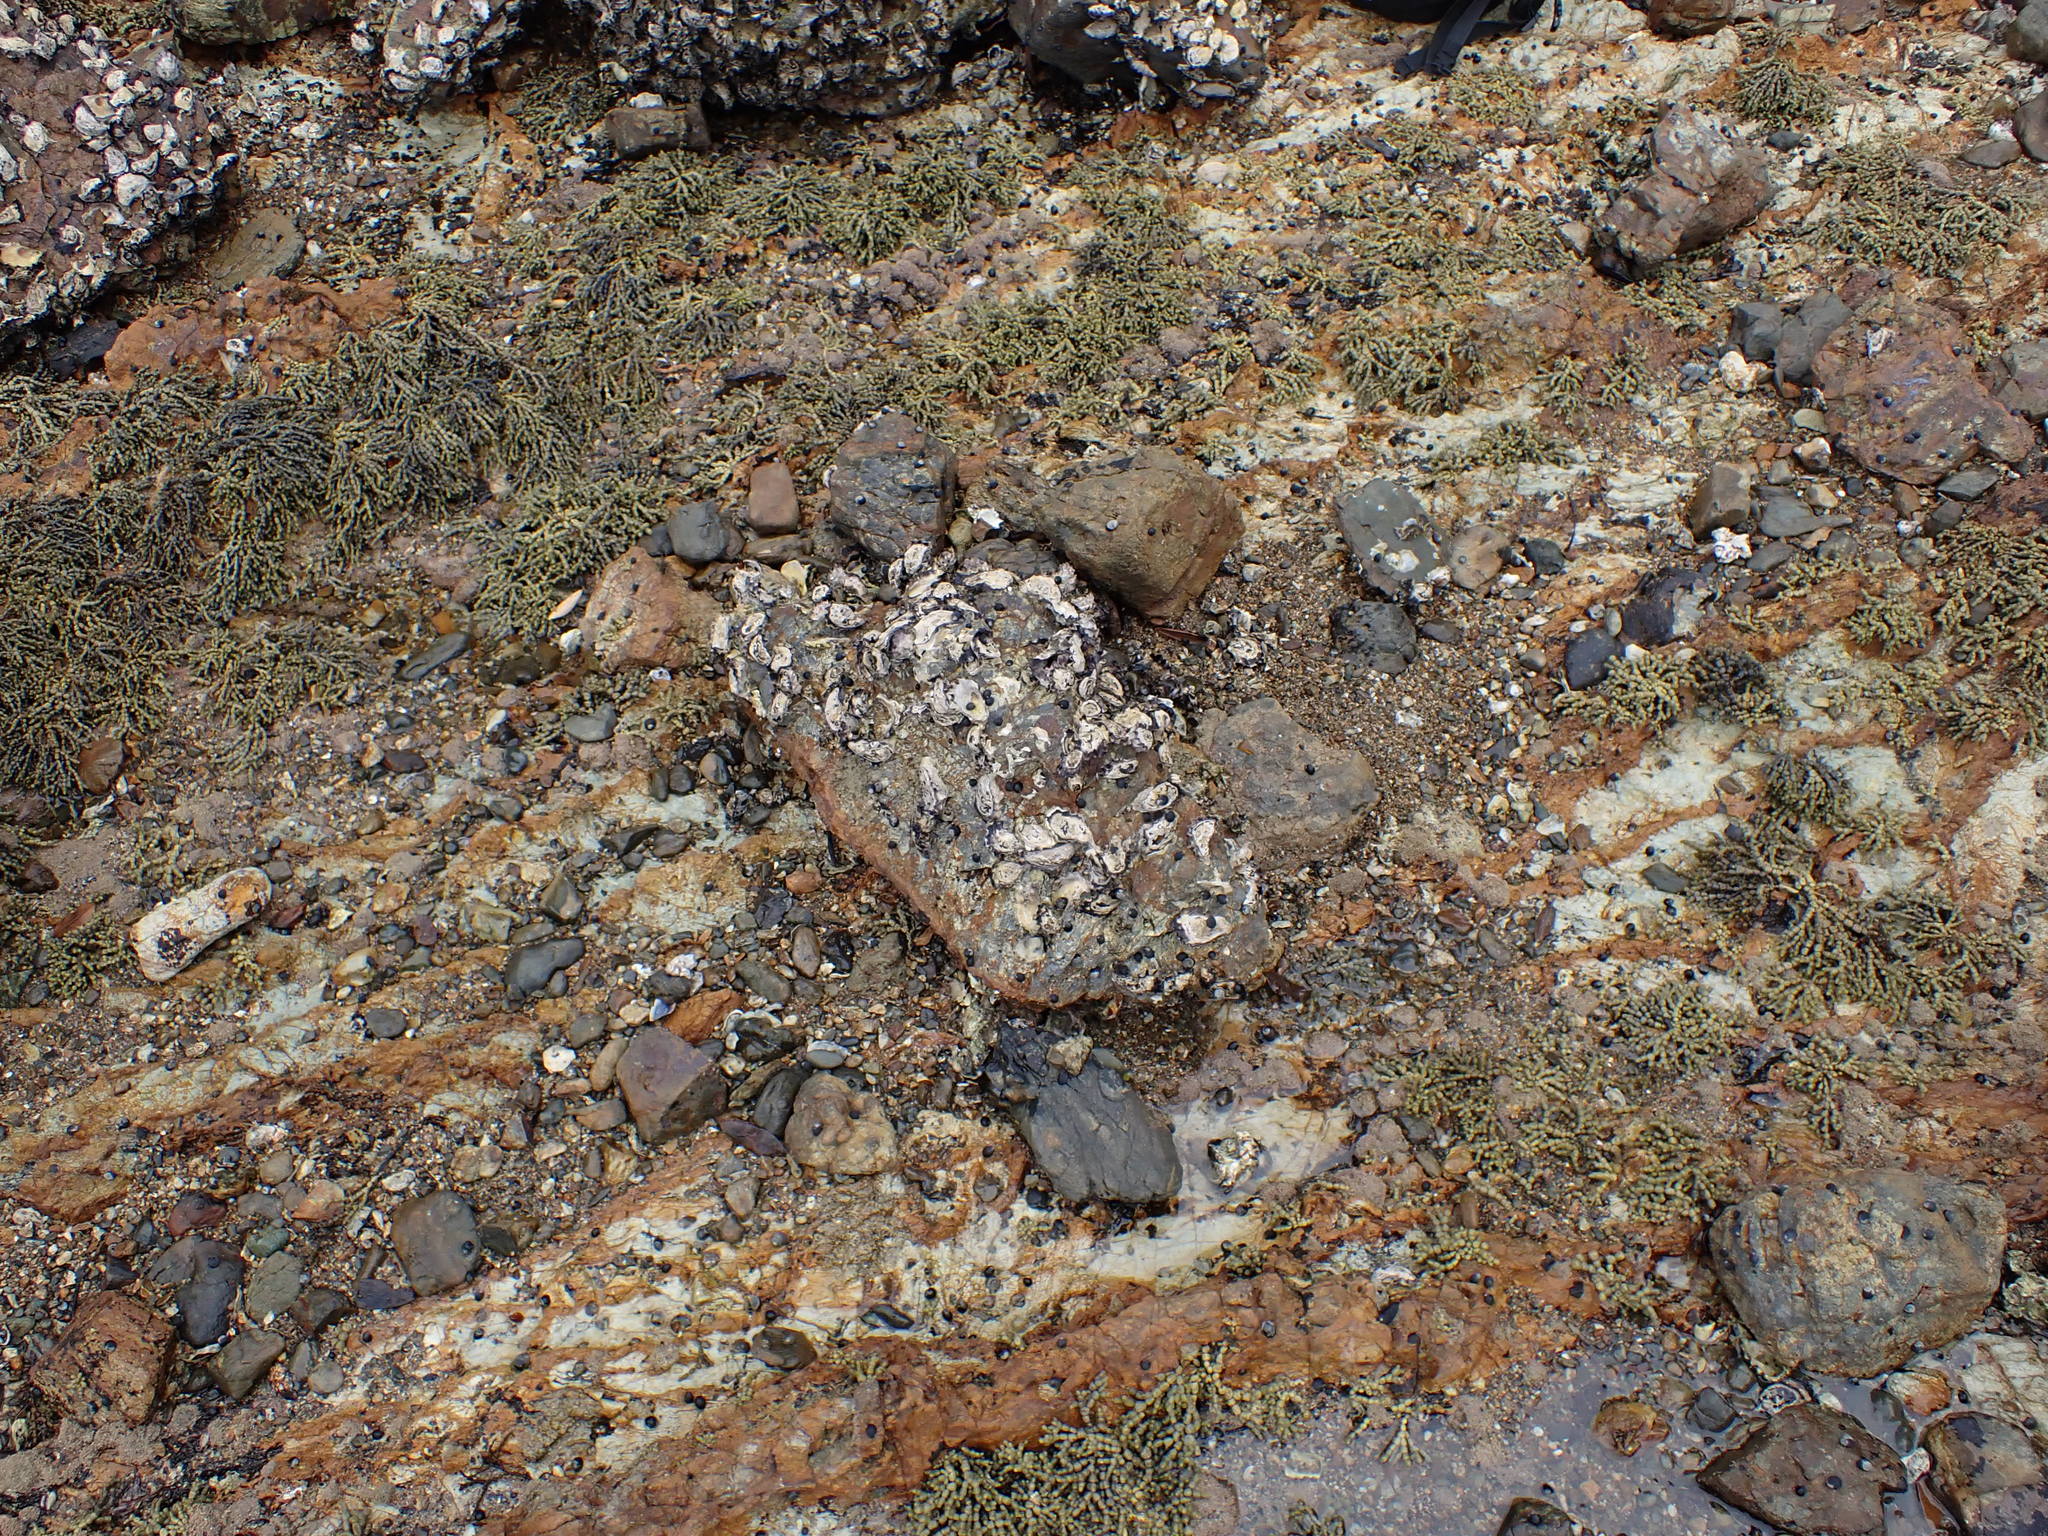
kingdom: Animalia
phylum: Mollusca
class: Polyplacophora
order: Chitonida
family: Ischnochitonidae
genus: Ischnochiton
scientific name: Ischnochiton maorianus
